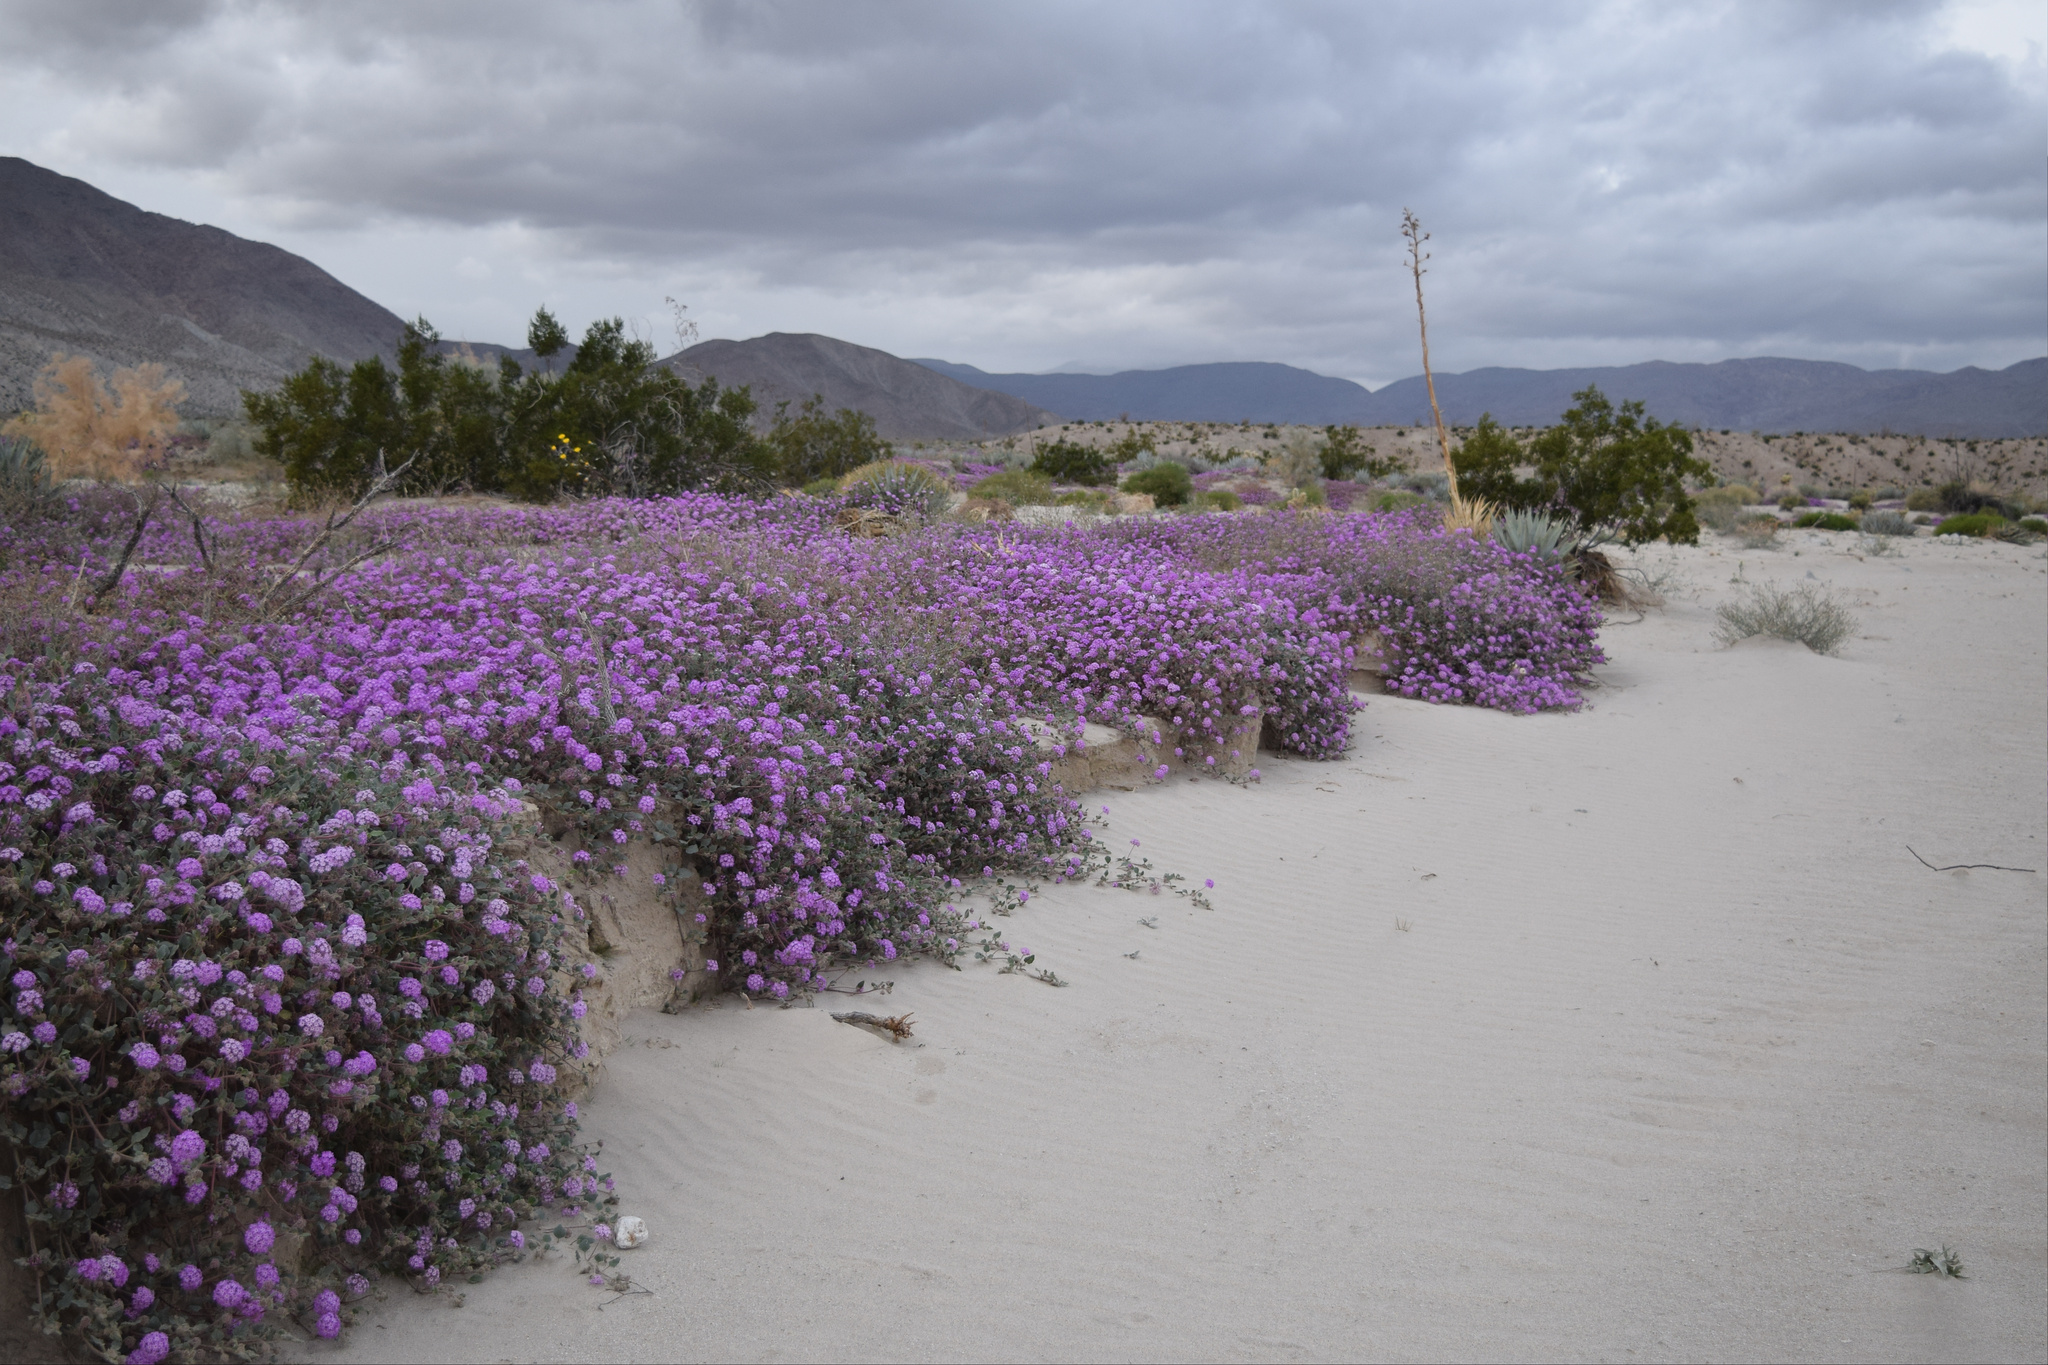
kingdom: Plantae
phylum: Tracheophyta
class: Magnoliopsida
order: Caryophyllales
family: Nyctaginaceae
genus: Abronia
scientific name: Abronia villosa
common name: Desert sand-verbena
